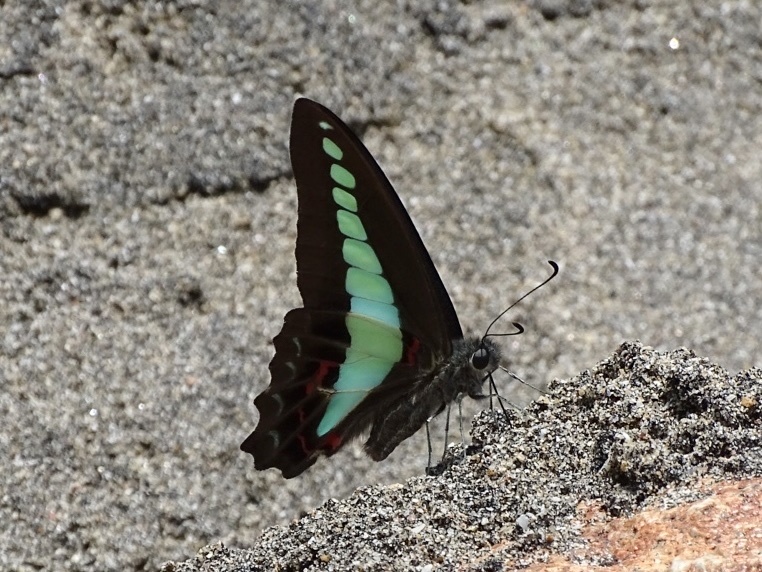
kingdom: Fungi
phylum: Ascomycota
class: Sordariomycetes
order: Microascales
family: Microascaceae
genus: Graphium
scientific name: Graphium sarpedon
